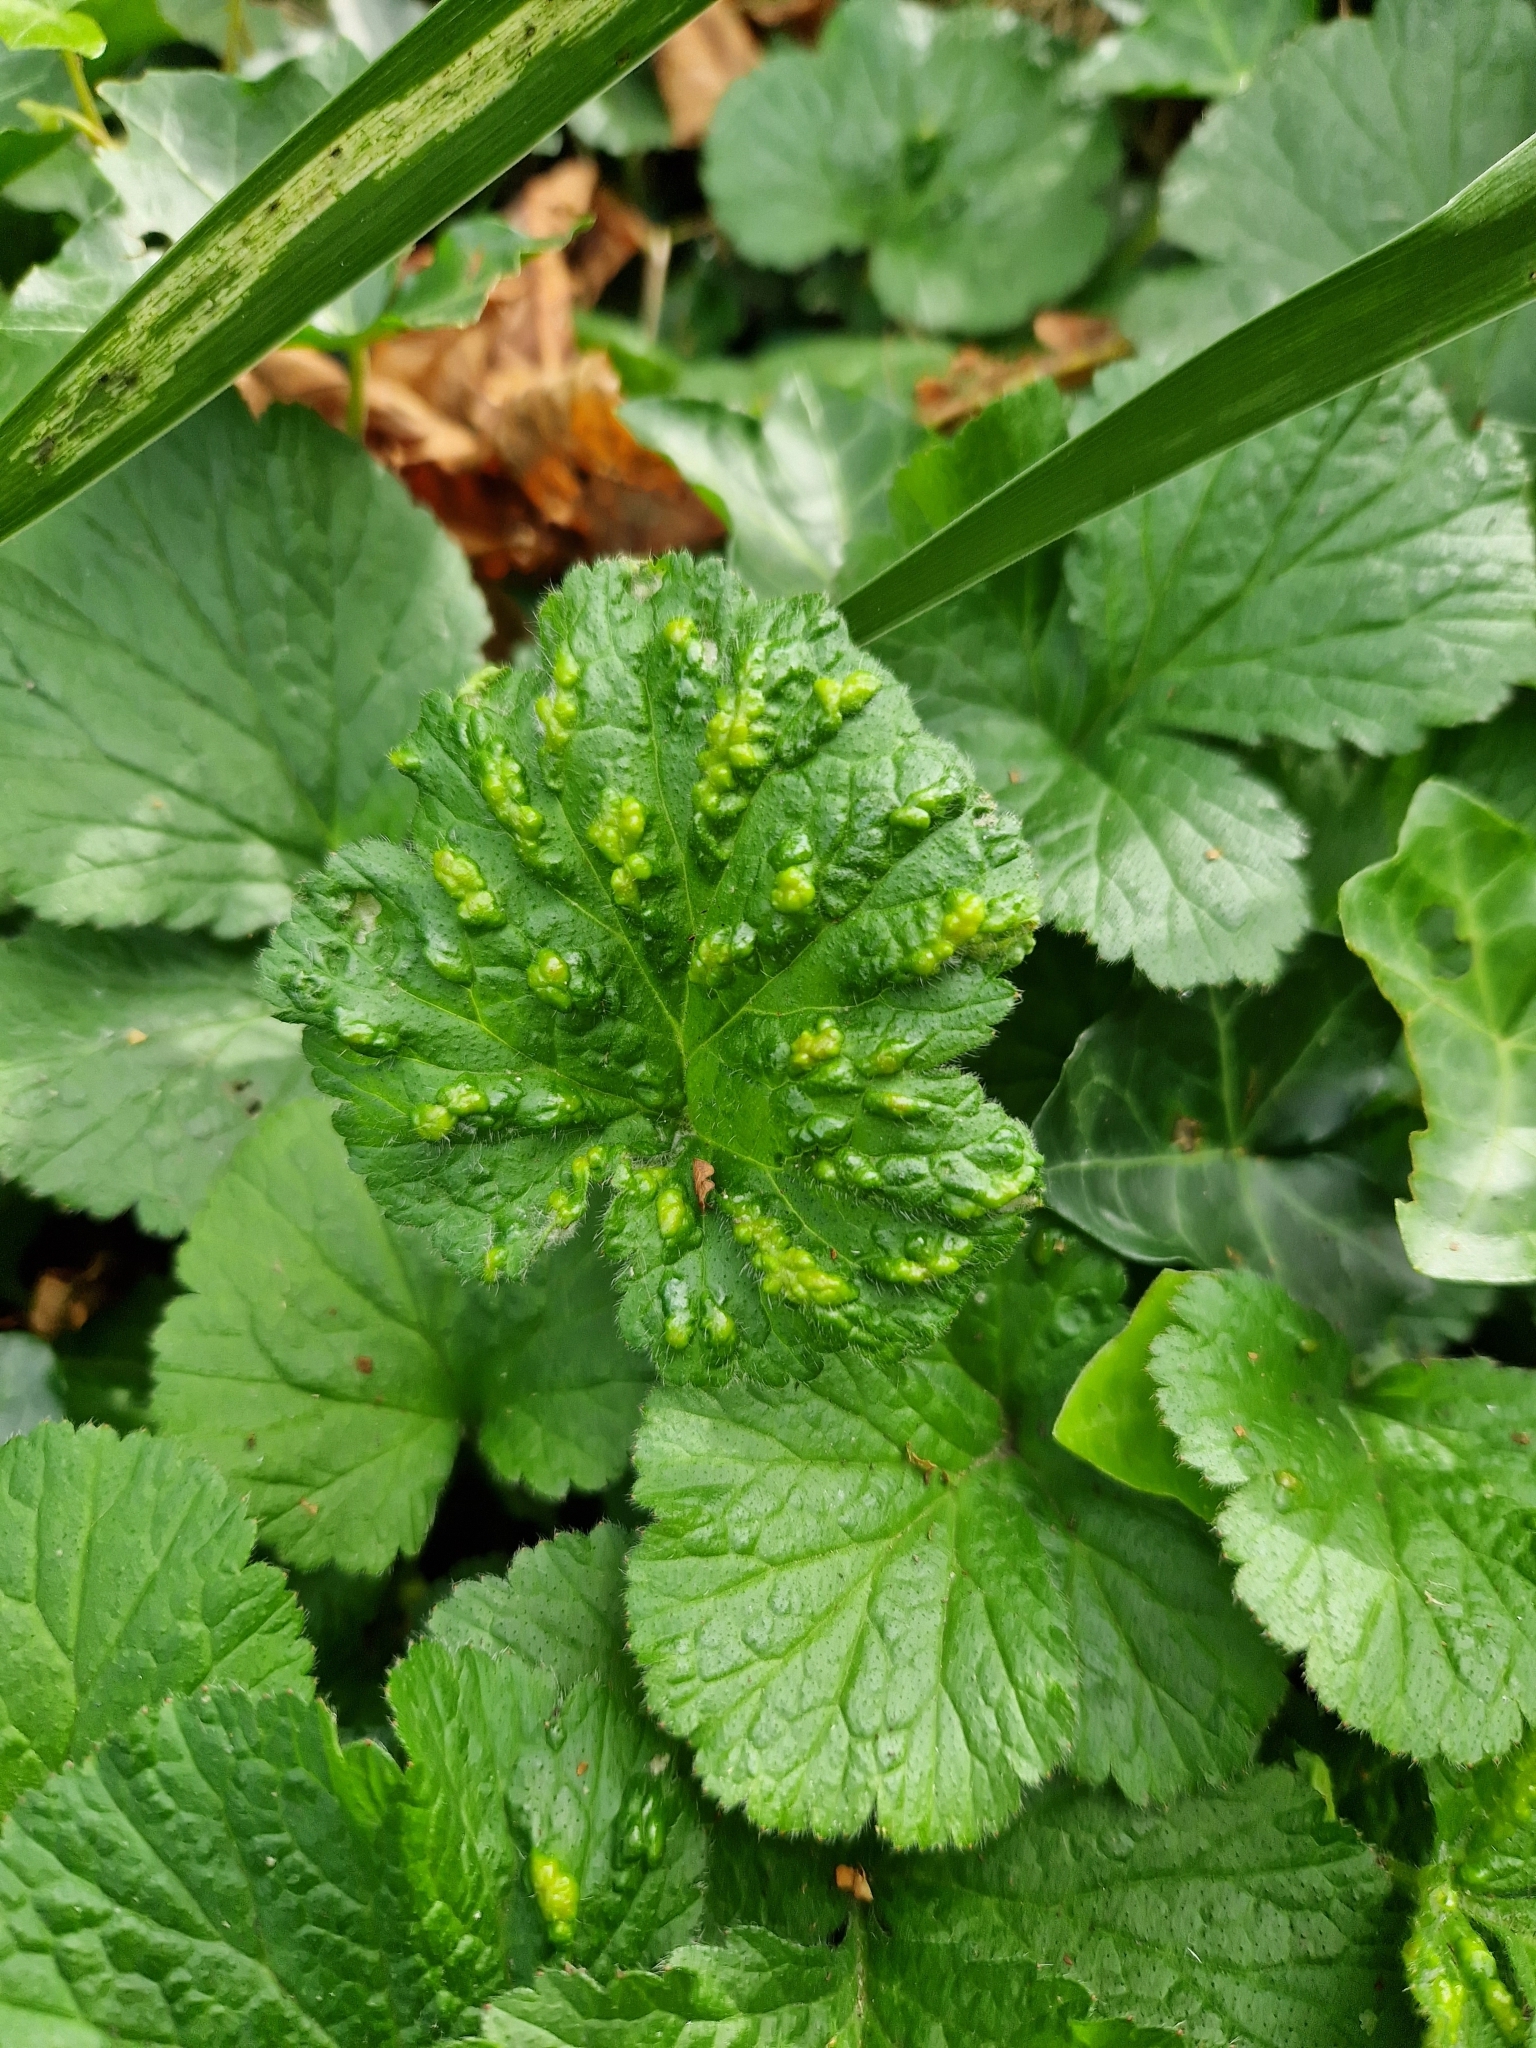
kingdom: Animalia
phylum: Arthropoda
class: Arachnida
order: Trombidiformes
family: Eriophyidae
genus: Cecidophyes
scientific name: Cecidophyes nudus
